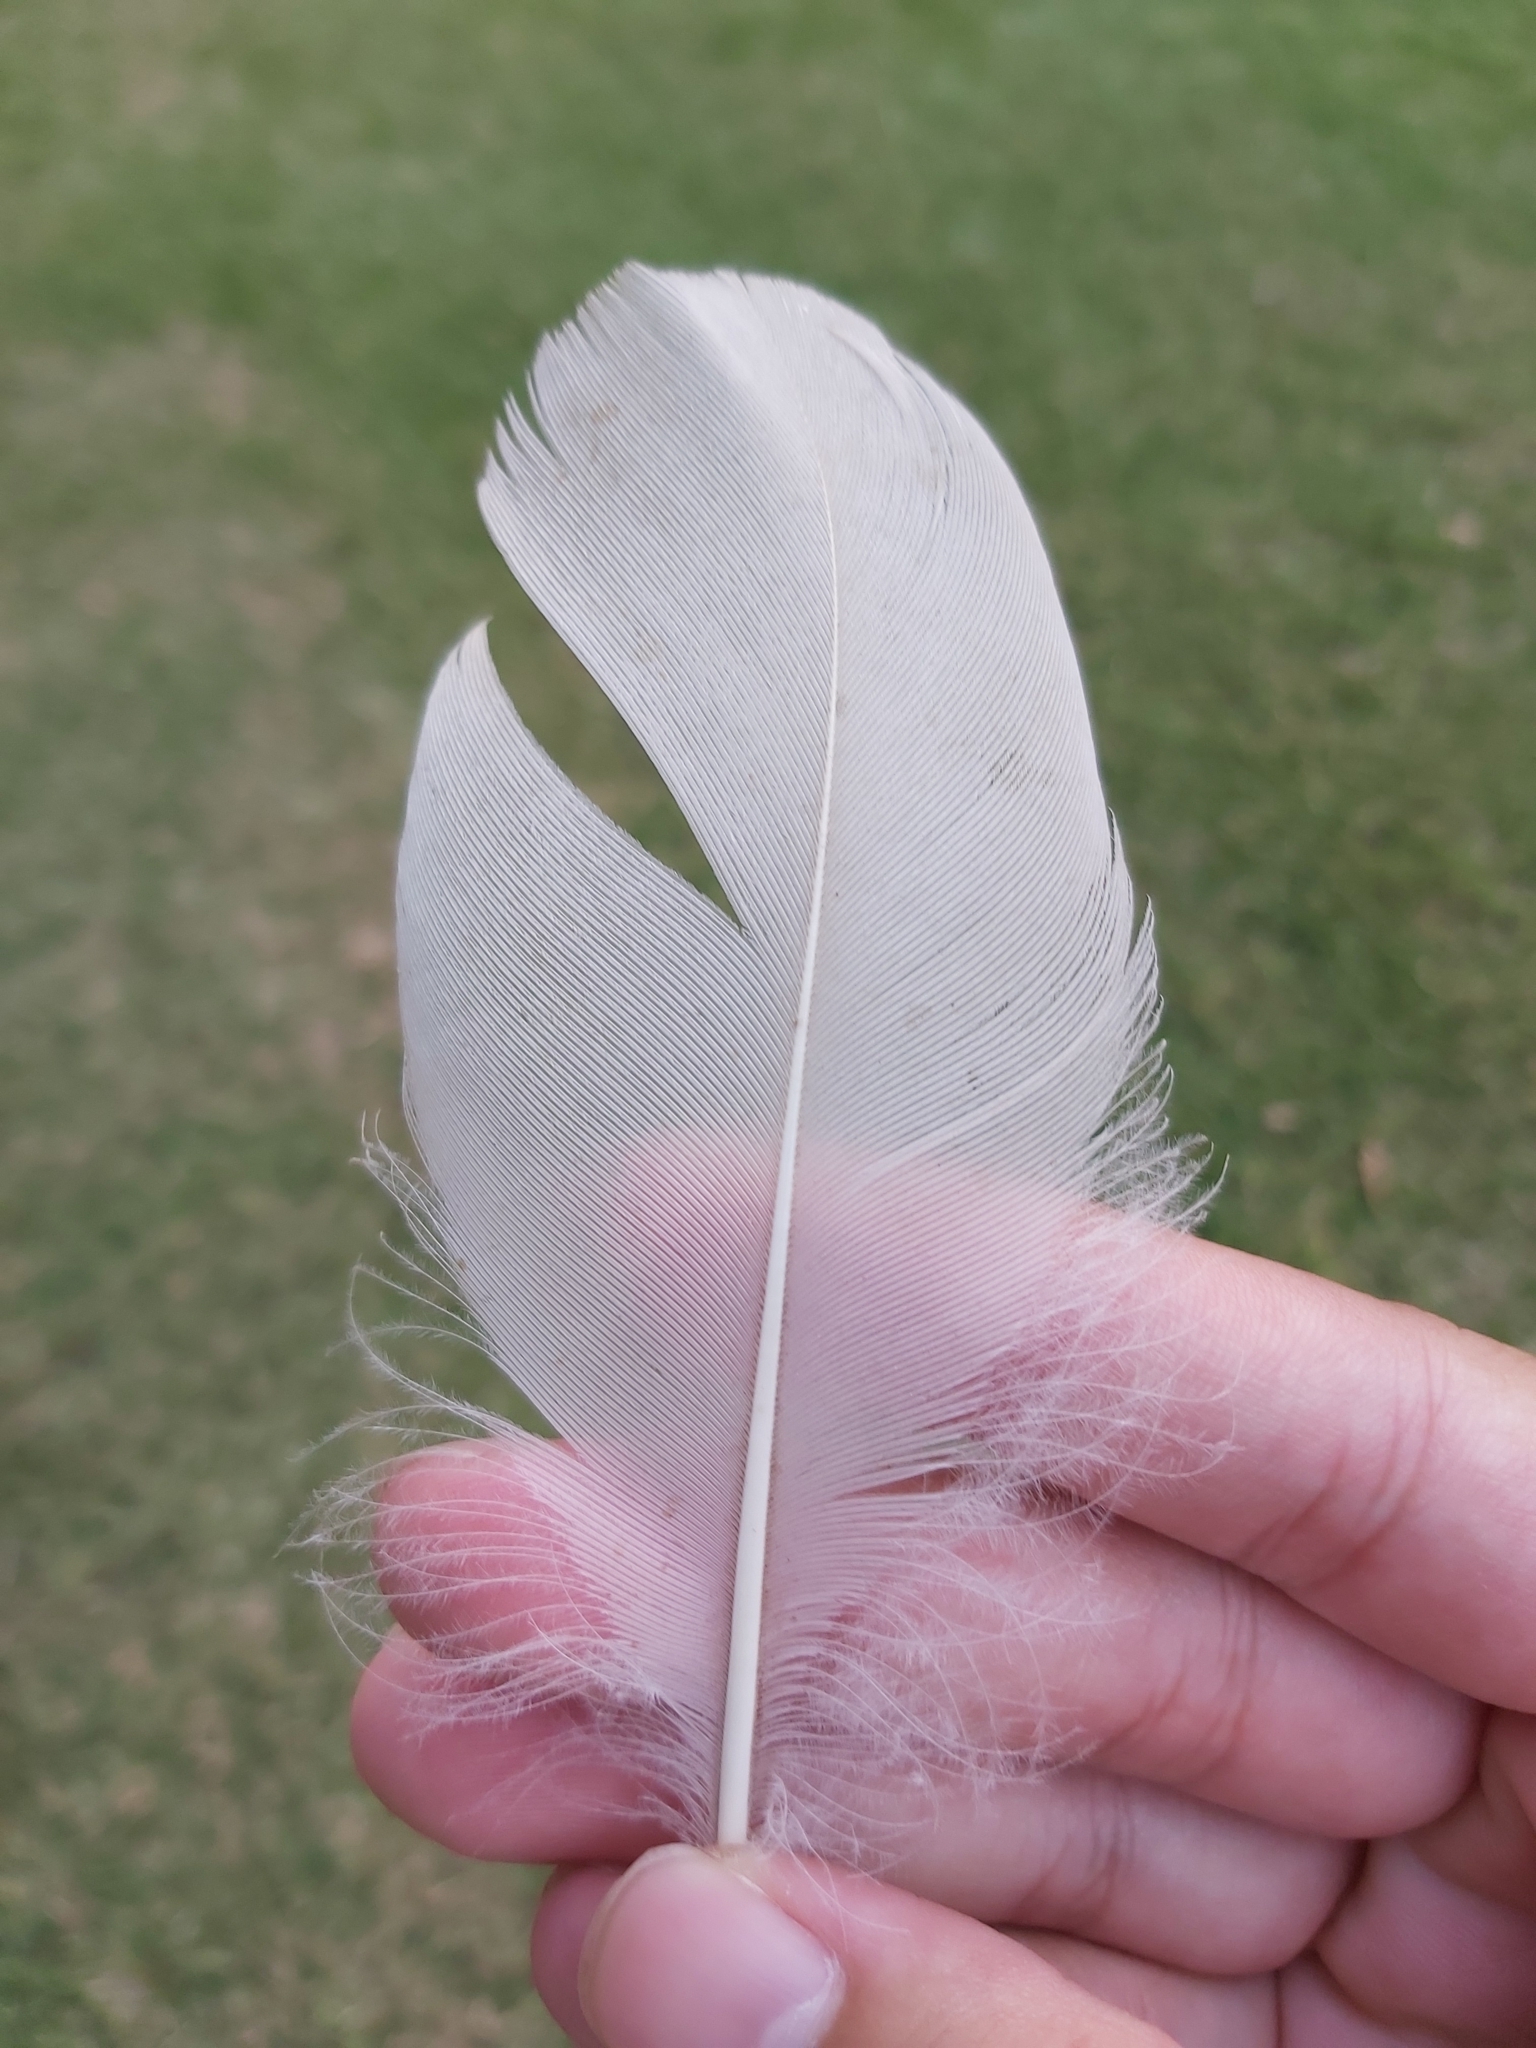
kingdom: Animalia
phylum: Chordata
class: Aves
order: Pelecaniformes
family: Threskiornithidae
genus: Threskiornis
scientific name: Threskiornis molucca
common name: Australian white ibis
